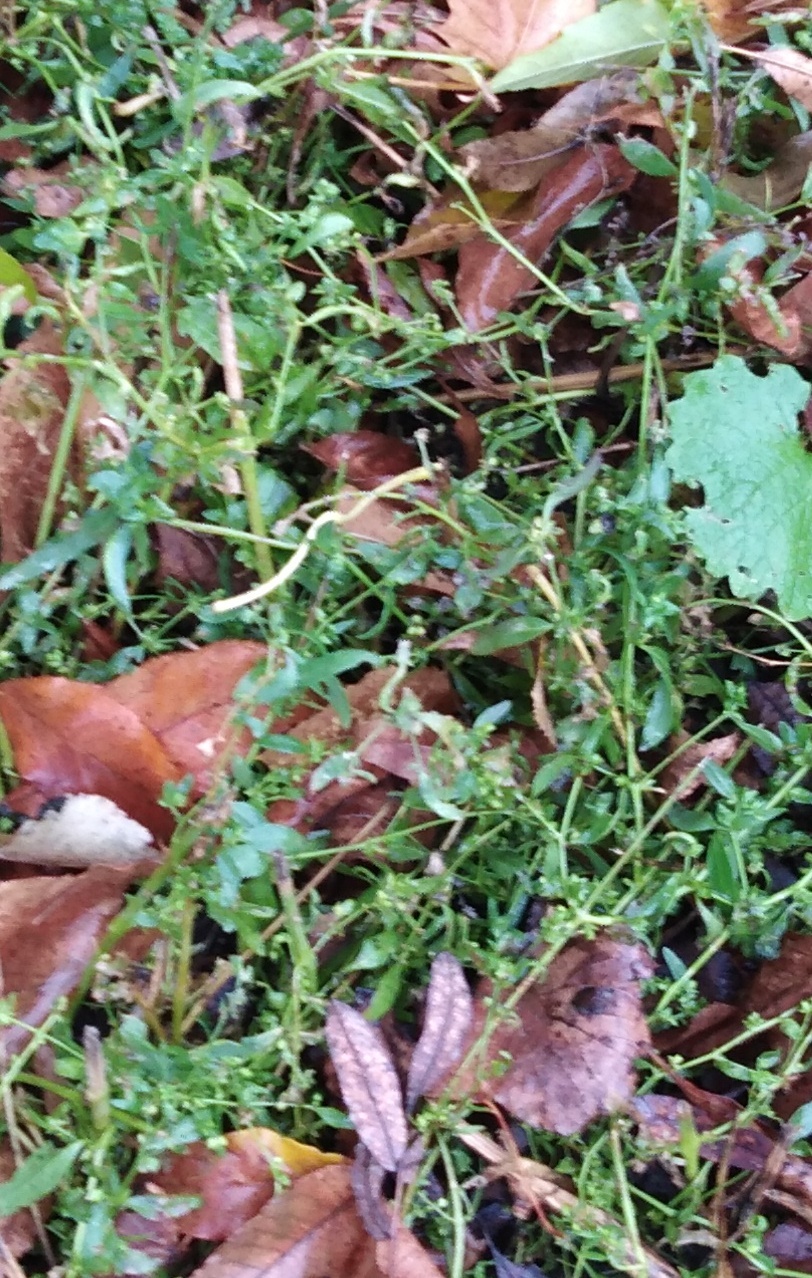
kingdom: Plantae
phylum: Tracheophyta
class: Magnoliopsida
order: Caryophyllales
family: Polygonaceae
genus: Polygonum
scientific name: Polygonum
